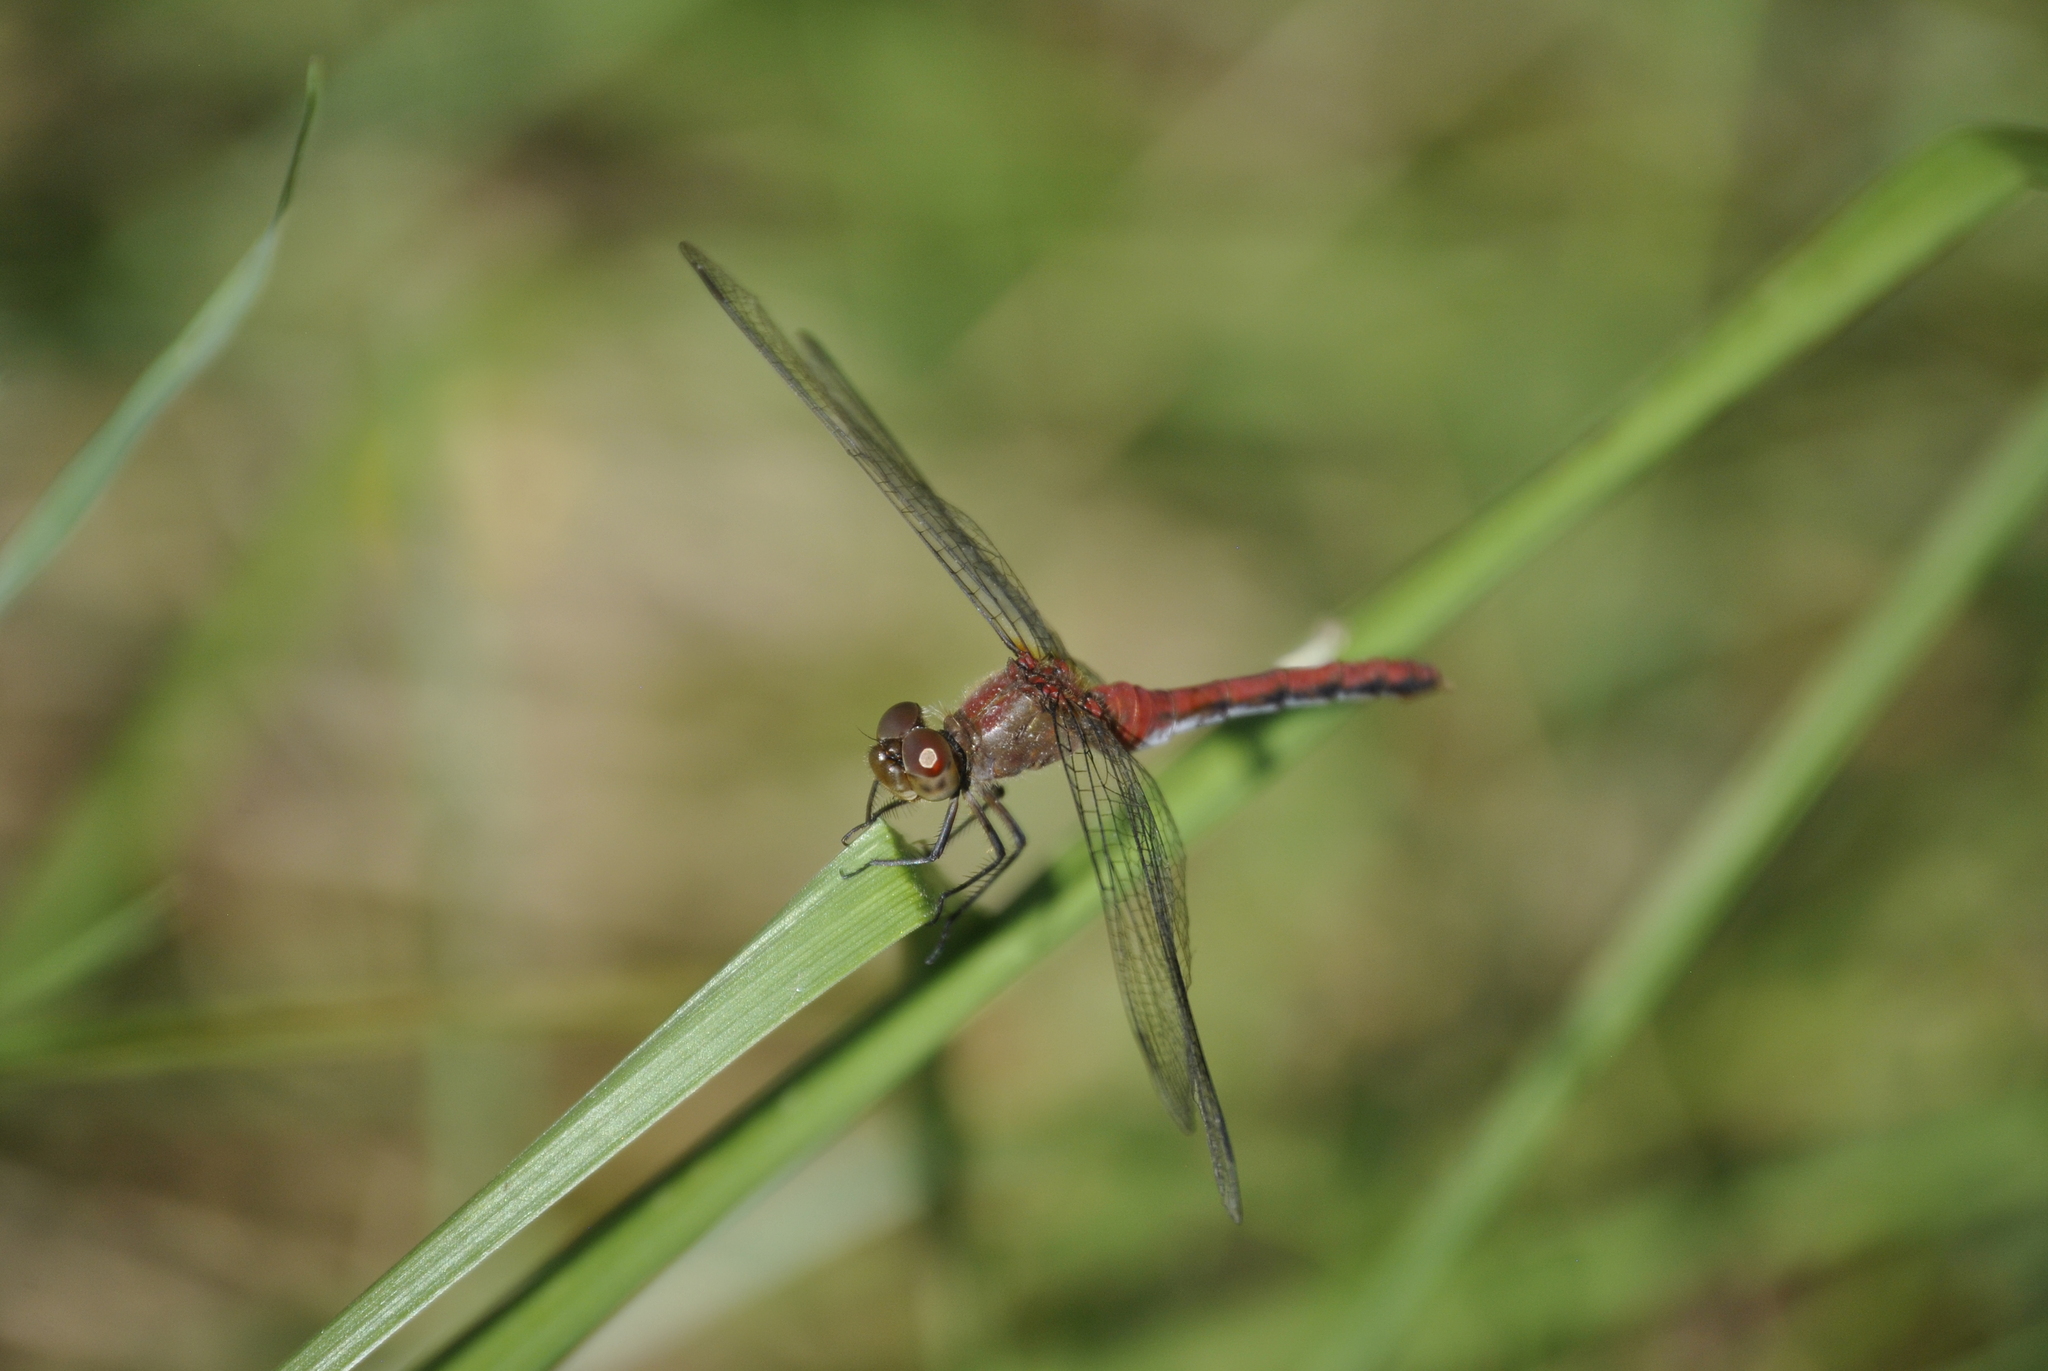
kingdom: Animalia
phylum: Arthropoda
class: Insecta
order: Odonata
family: Libellulidae
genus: Sympetrum
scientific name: Sympetrum
